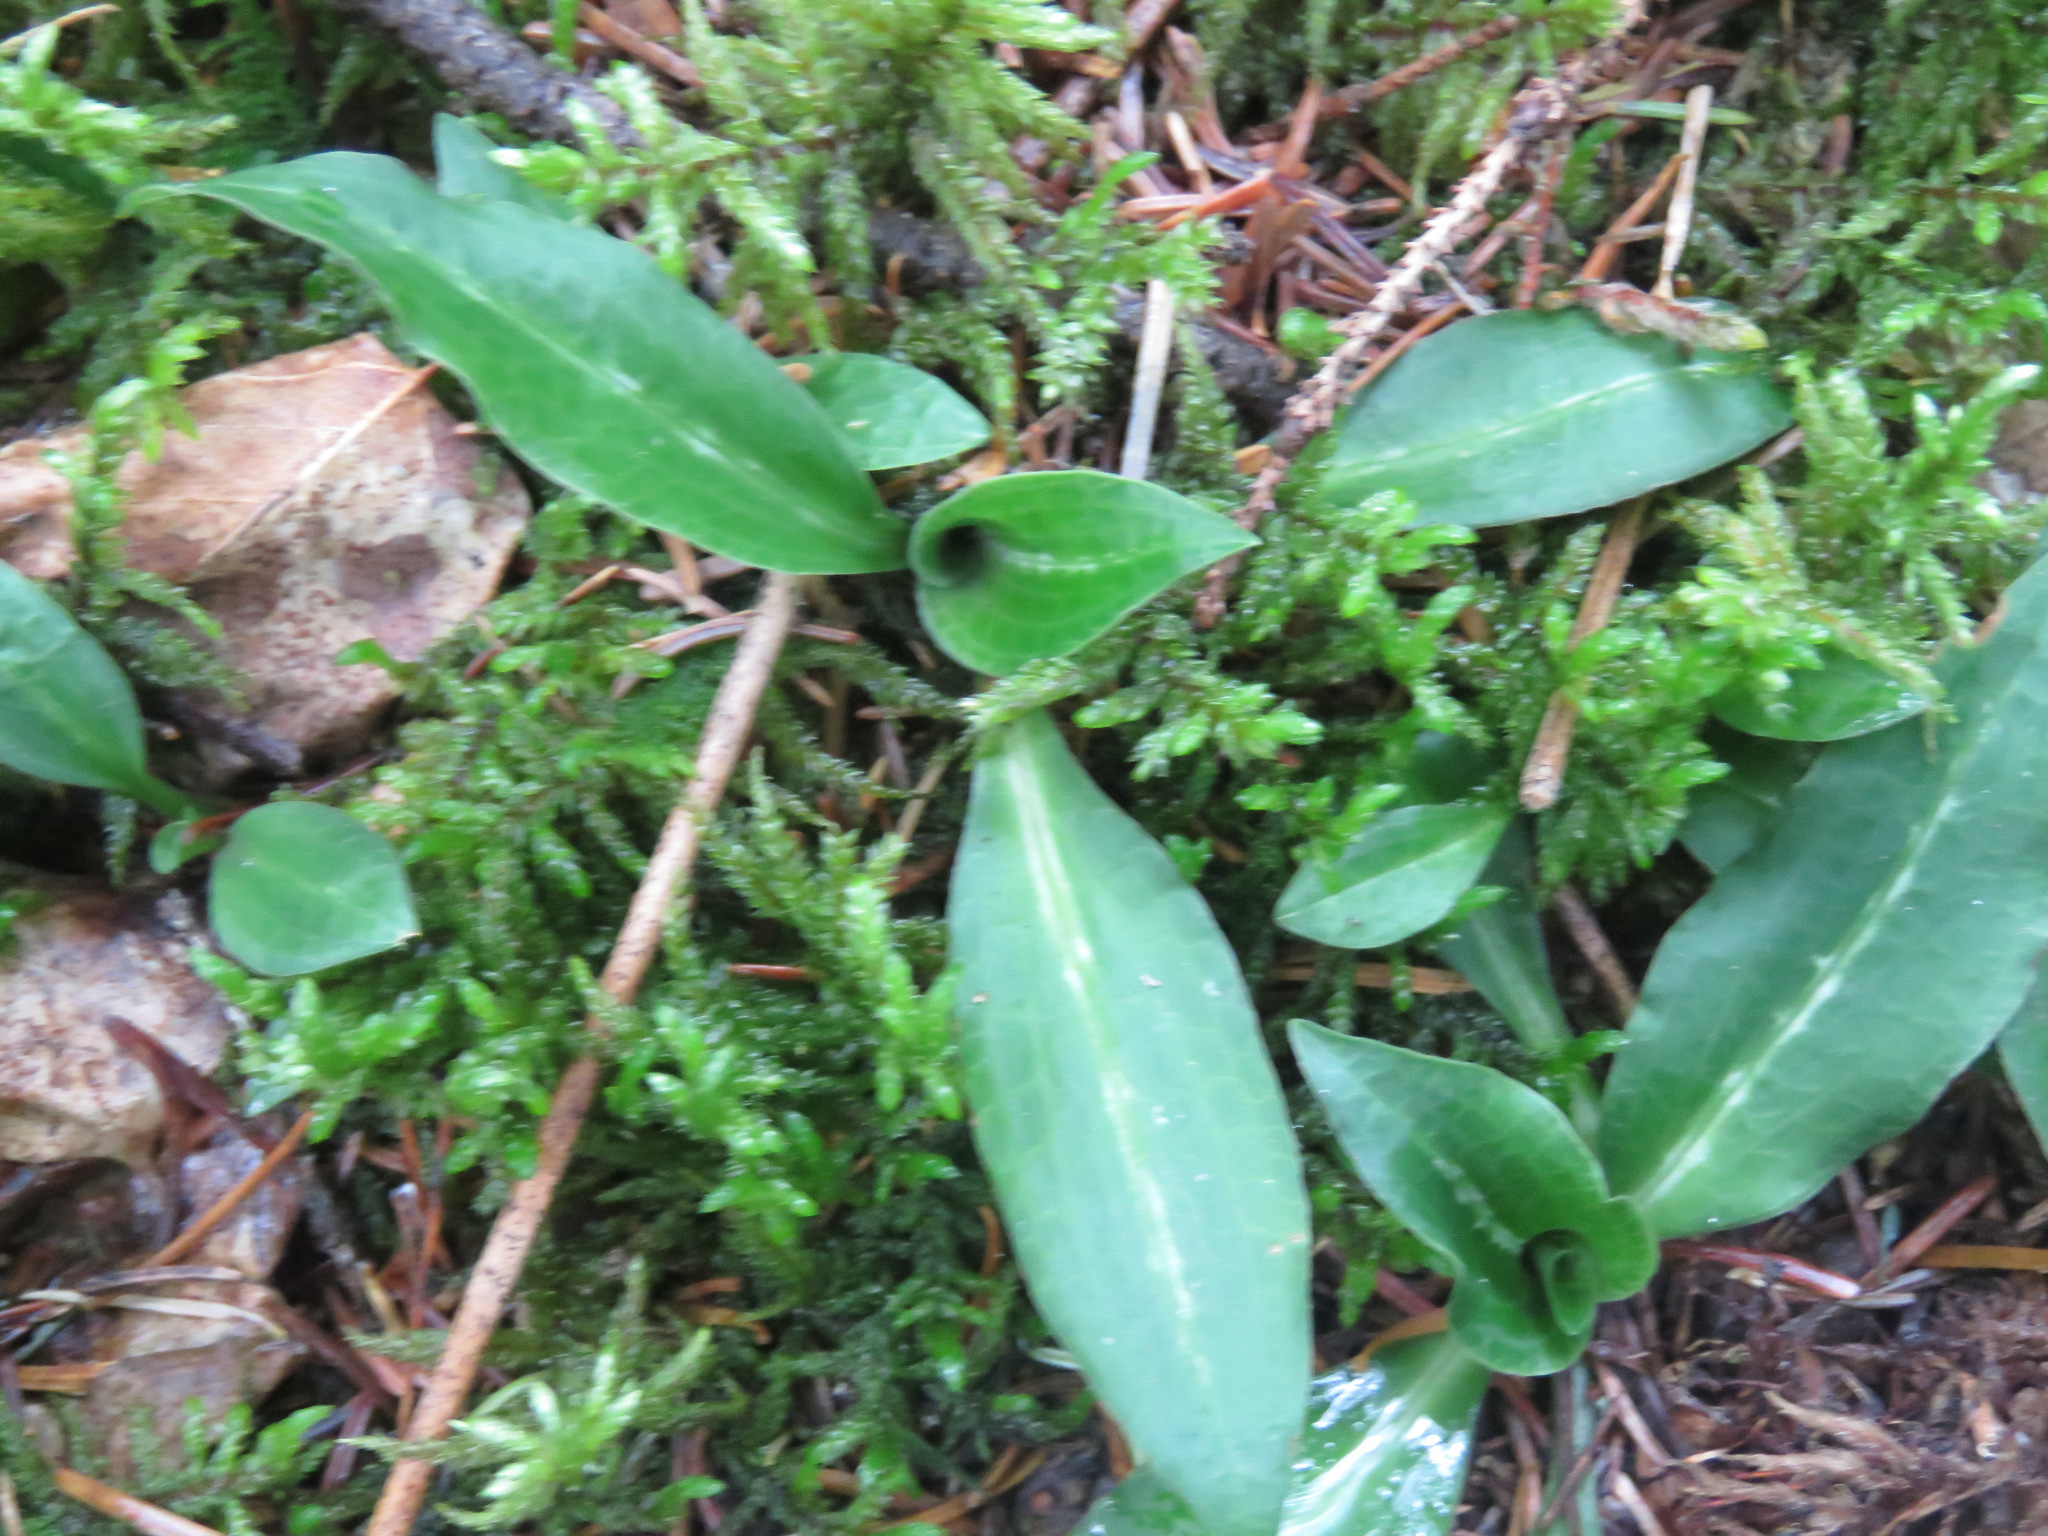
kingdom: Plantae
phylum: Tracheophyta
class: Liliopsida
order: Asparagales
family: Orchidaceae
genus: Goodyera
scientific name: Goodyera oblongifolia
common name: Giant rattlesnake-plantain
